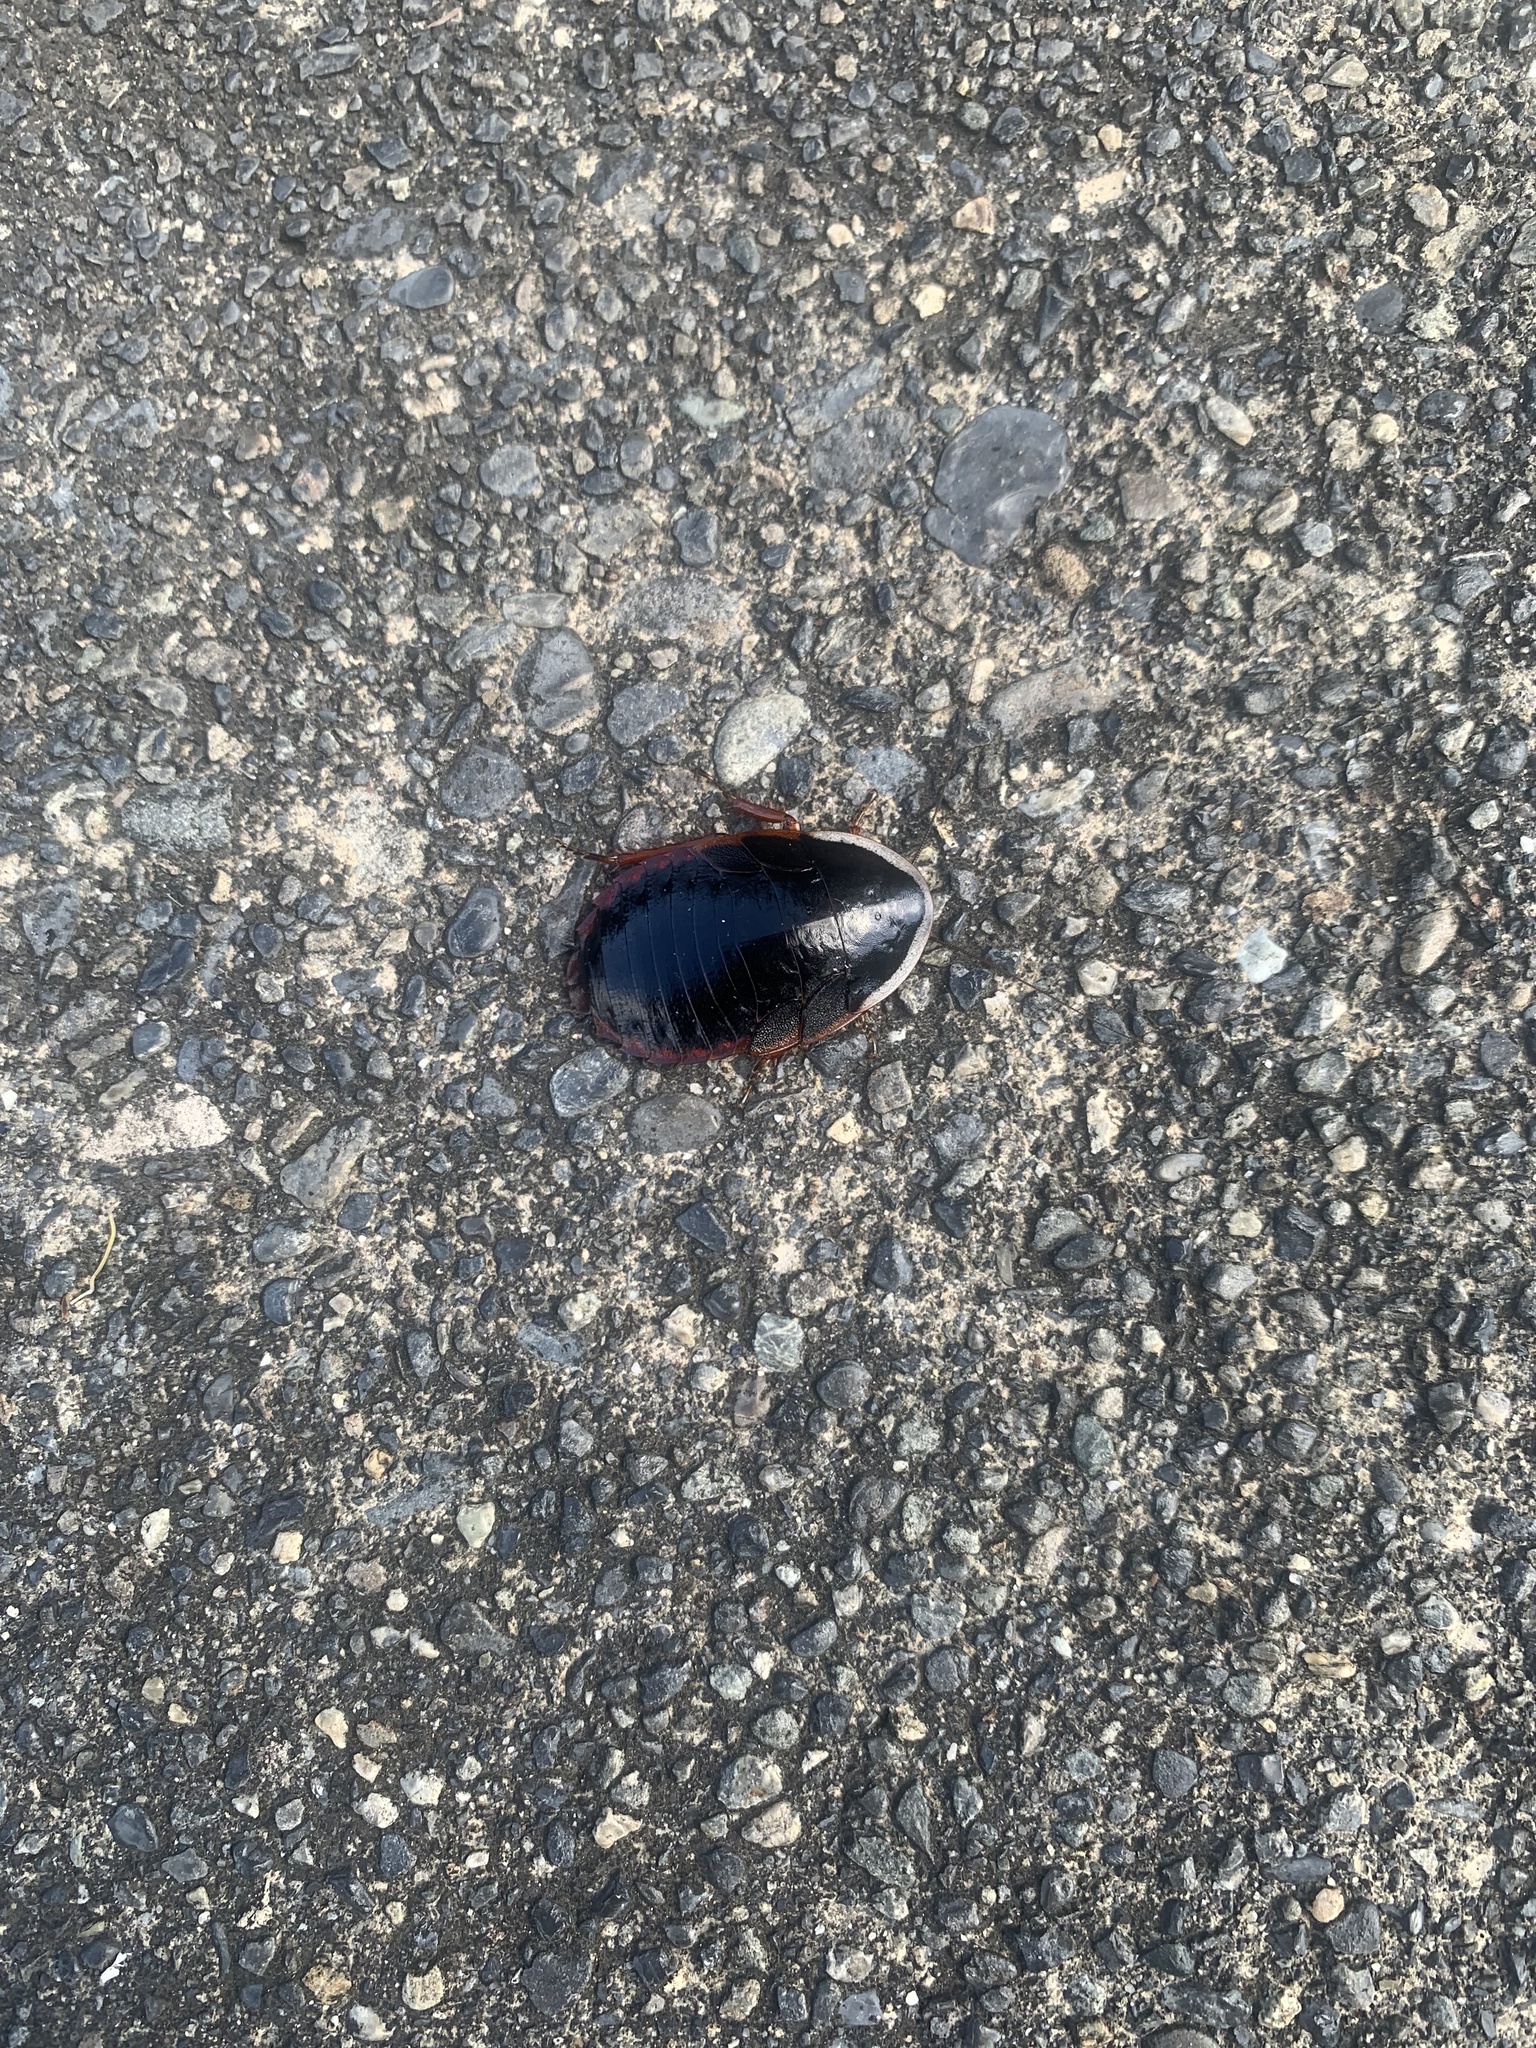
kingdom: Animalia
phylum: Arthropoda
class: Insecta
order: Blattodea
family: Blaberidae
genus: Opisthoplatia
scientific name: Opisthoplatia orientalis
